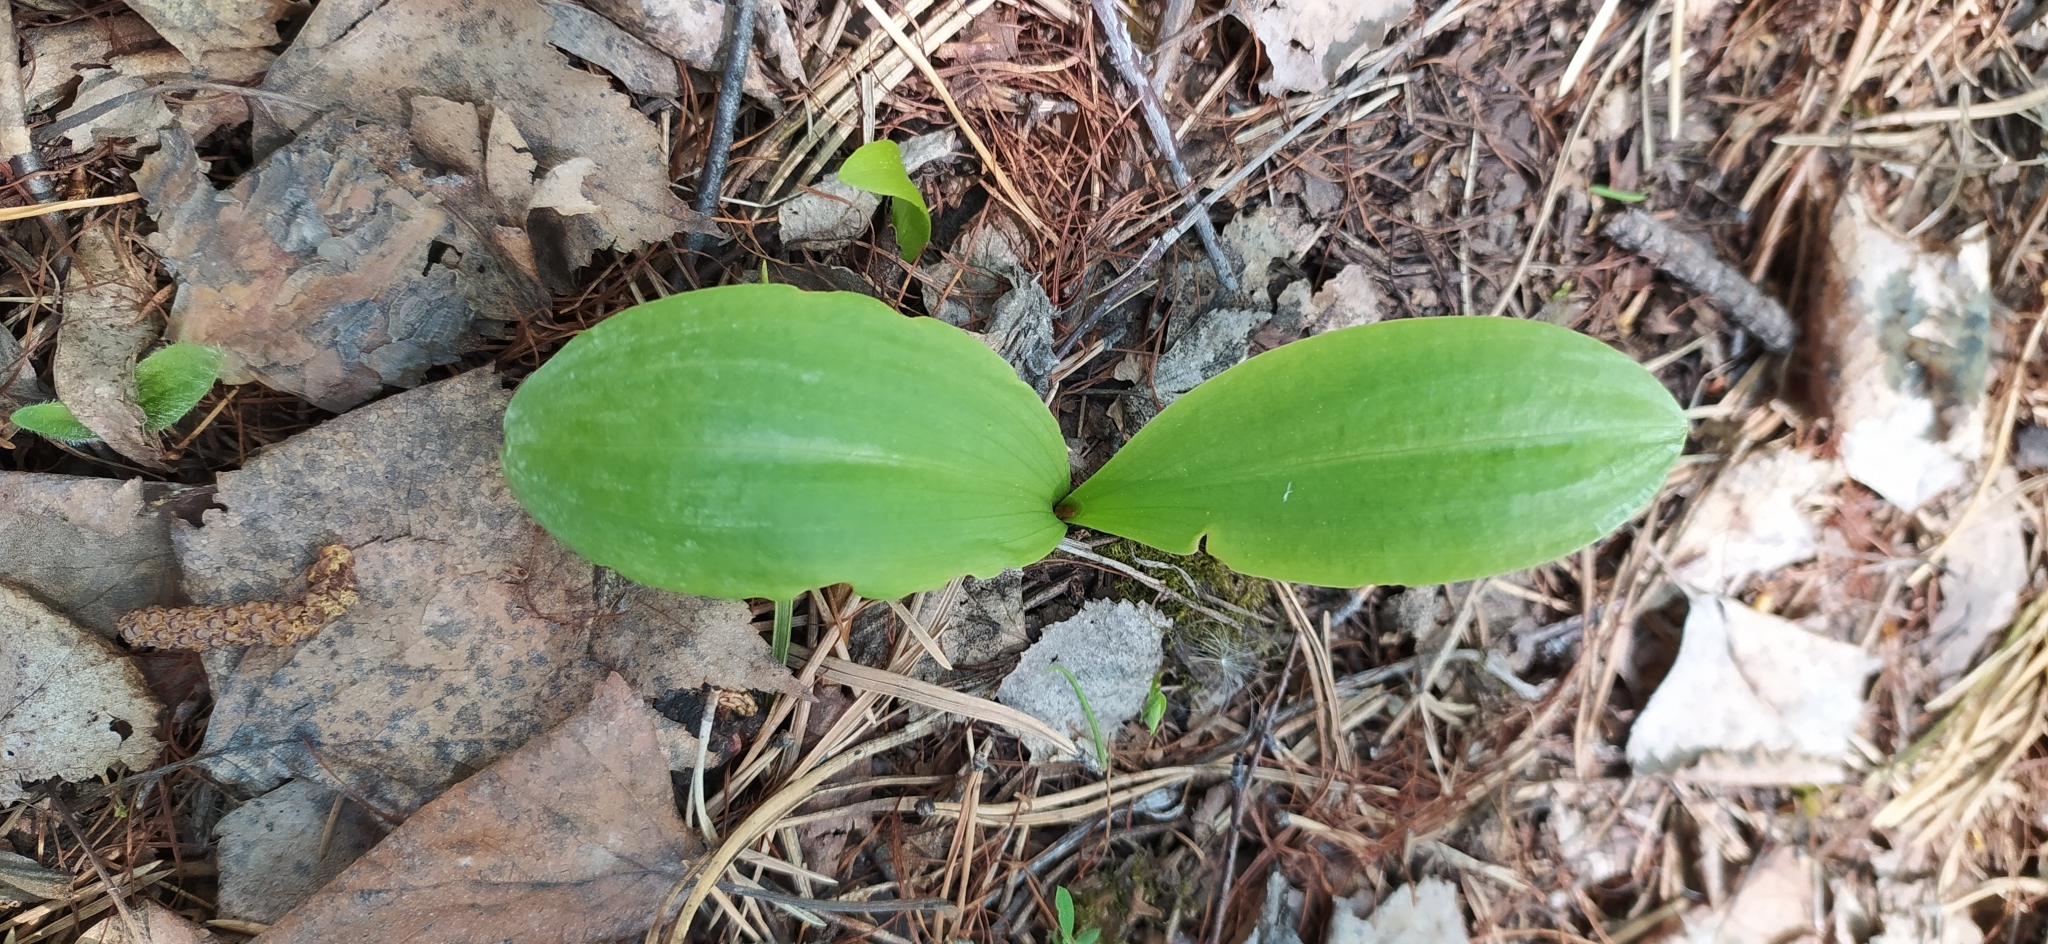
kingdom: Plantae
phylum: Tracheophyta
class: Liliopsida
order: Asparagales
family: Orchidaceae
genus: Platanthera
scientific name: Platanthera bifolia
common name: Lesser butterfly-orchid
